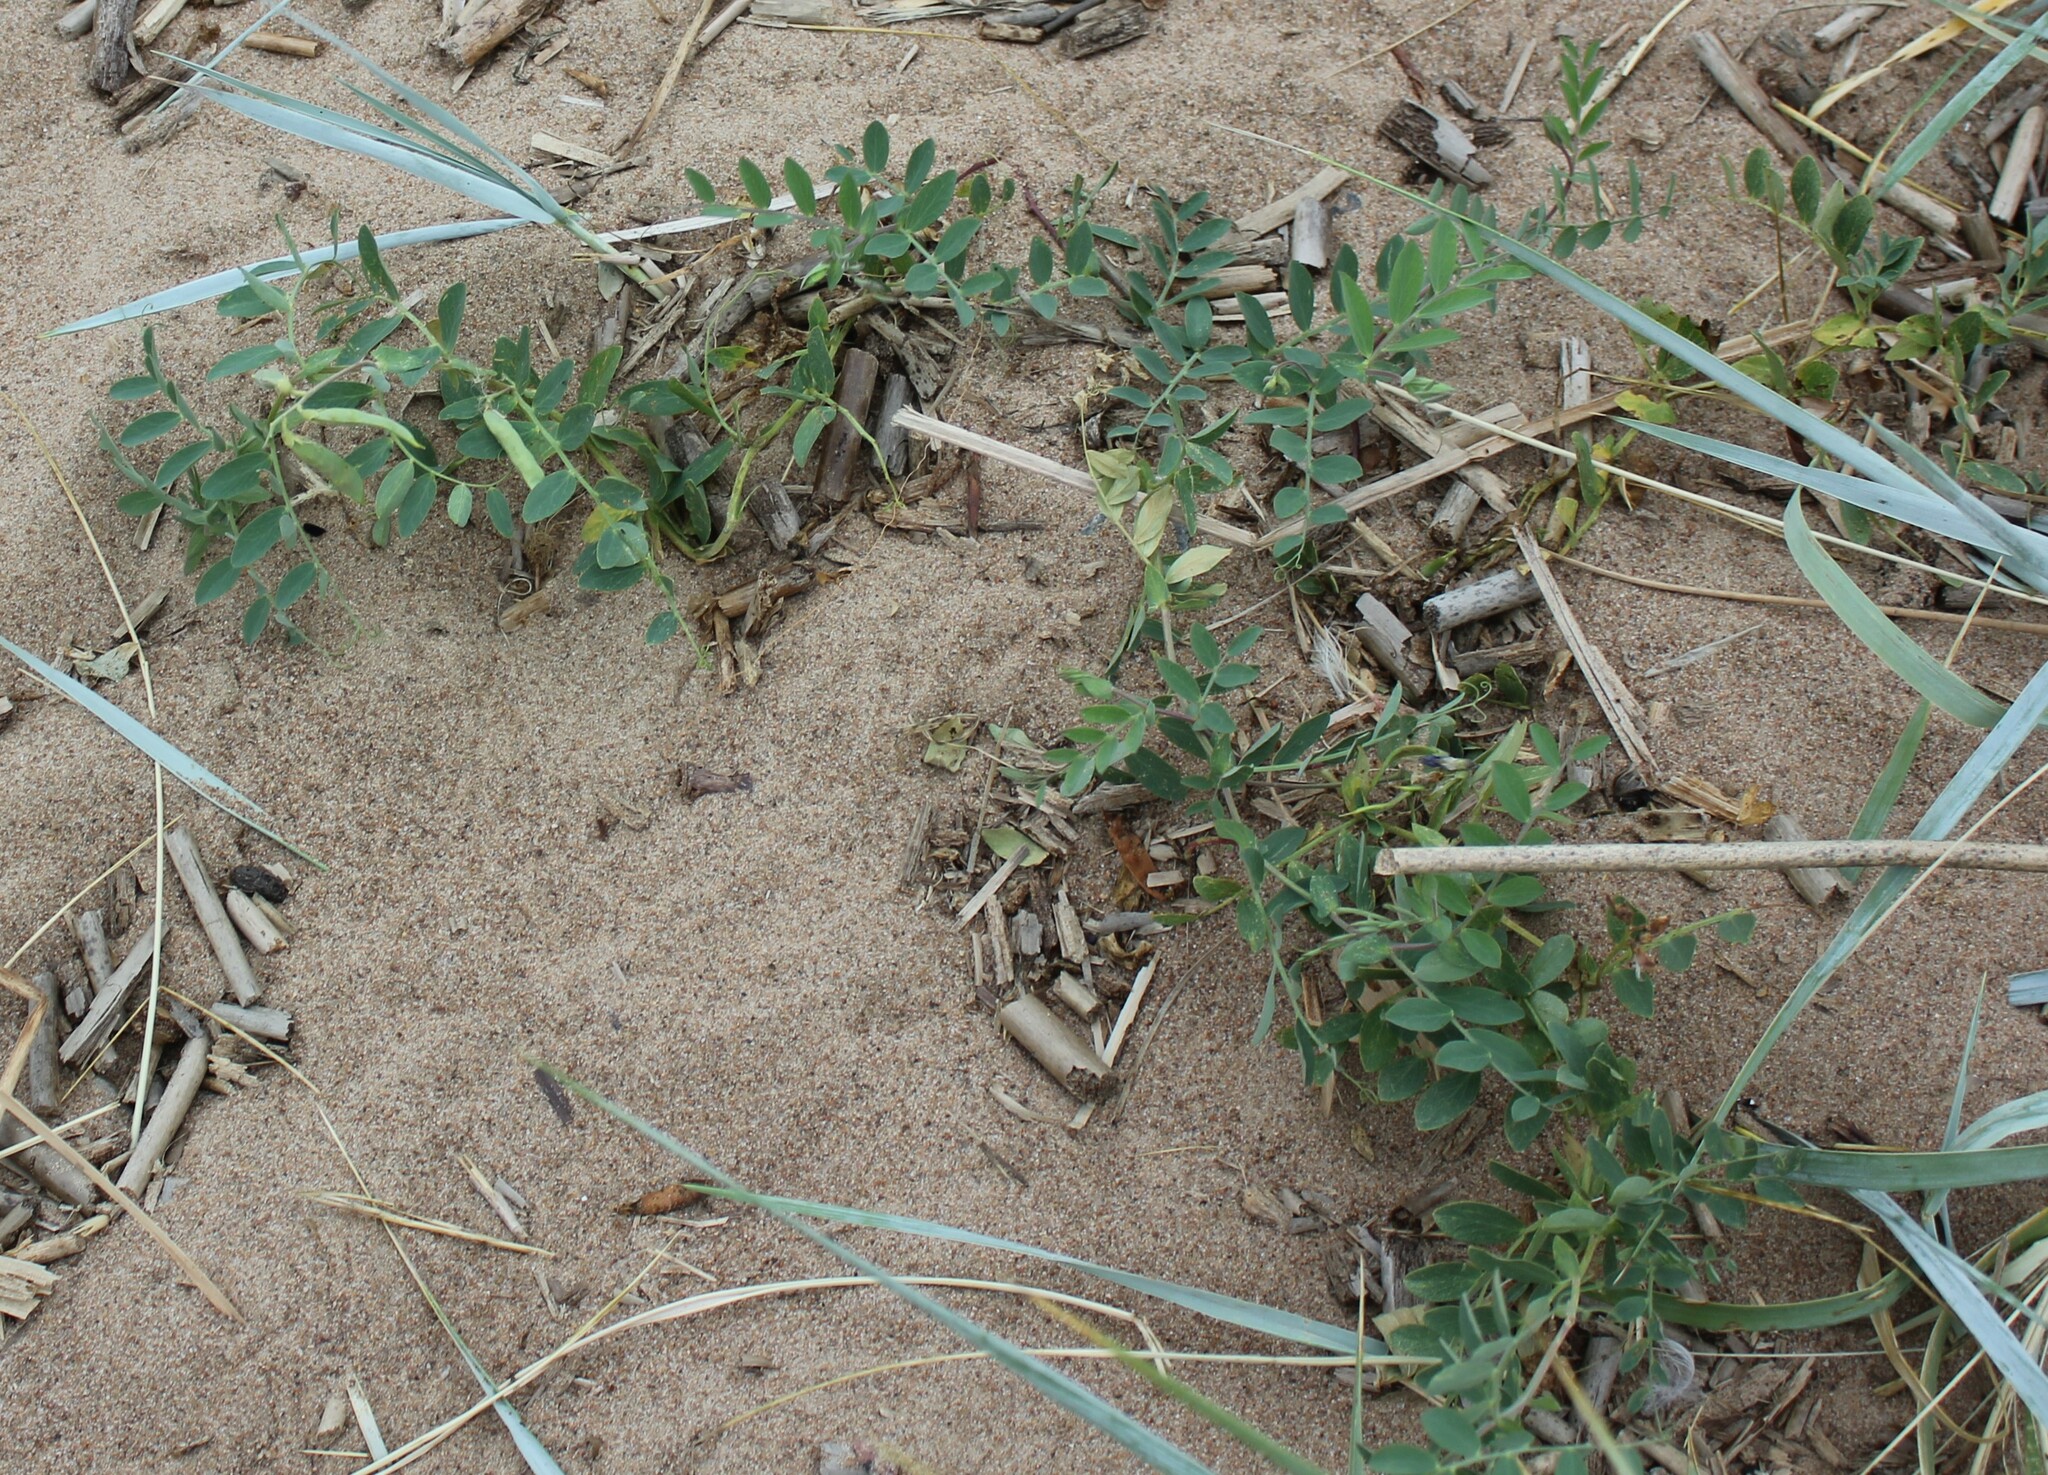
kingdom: Plantae
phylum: Tracheophyta
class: Magnoliopsida
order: Fabales
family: Fabaceae
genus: Lathyrus
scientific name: Lathyrus japonicus
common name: Sea pea
